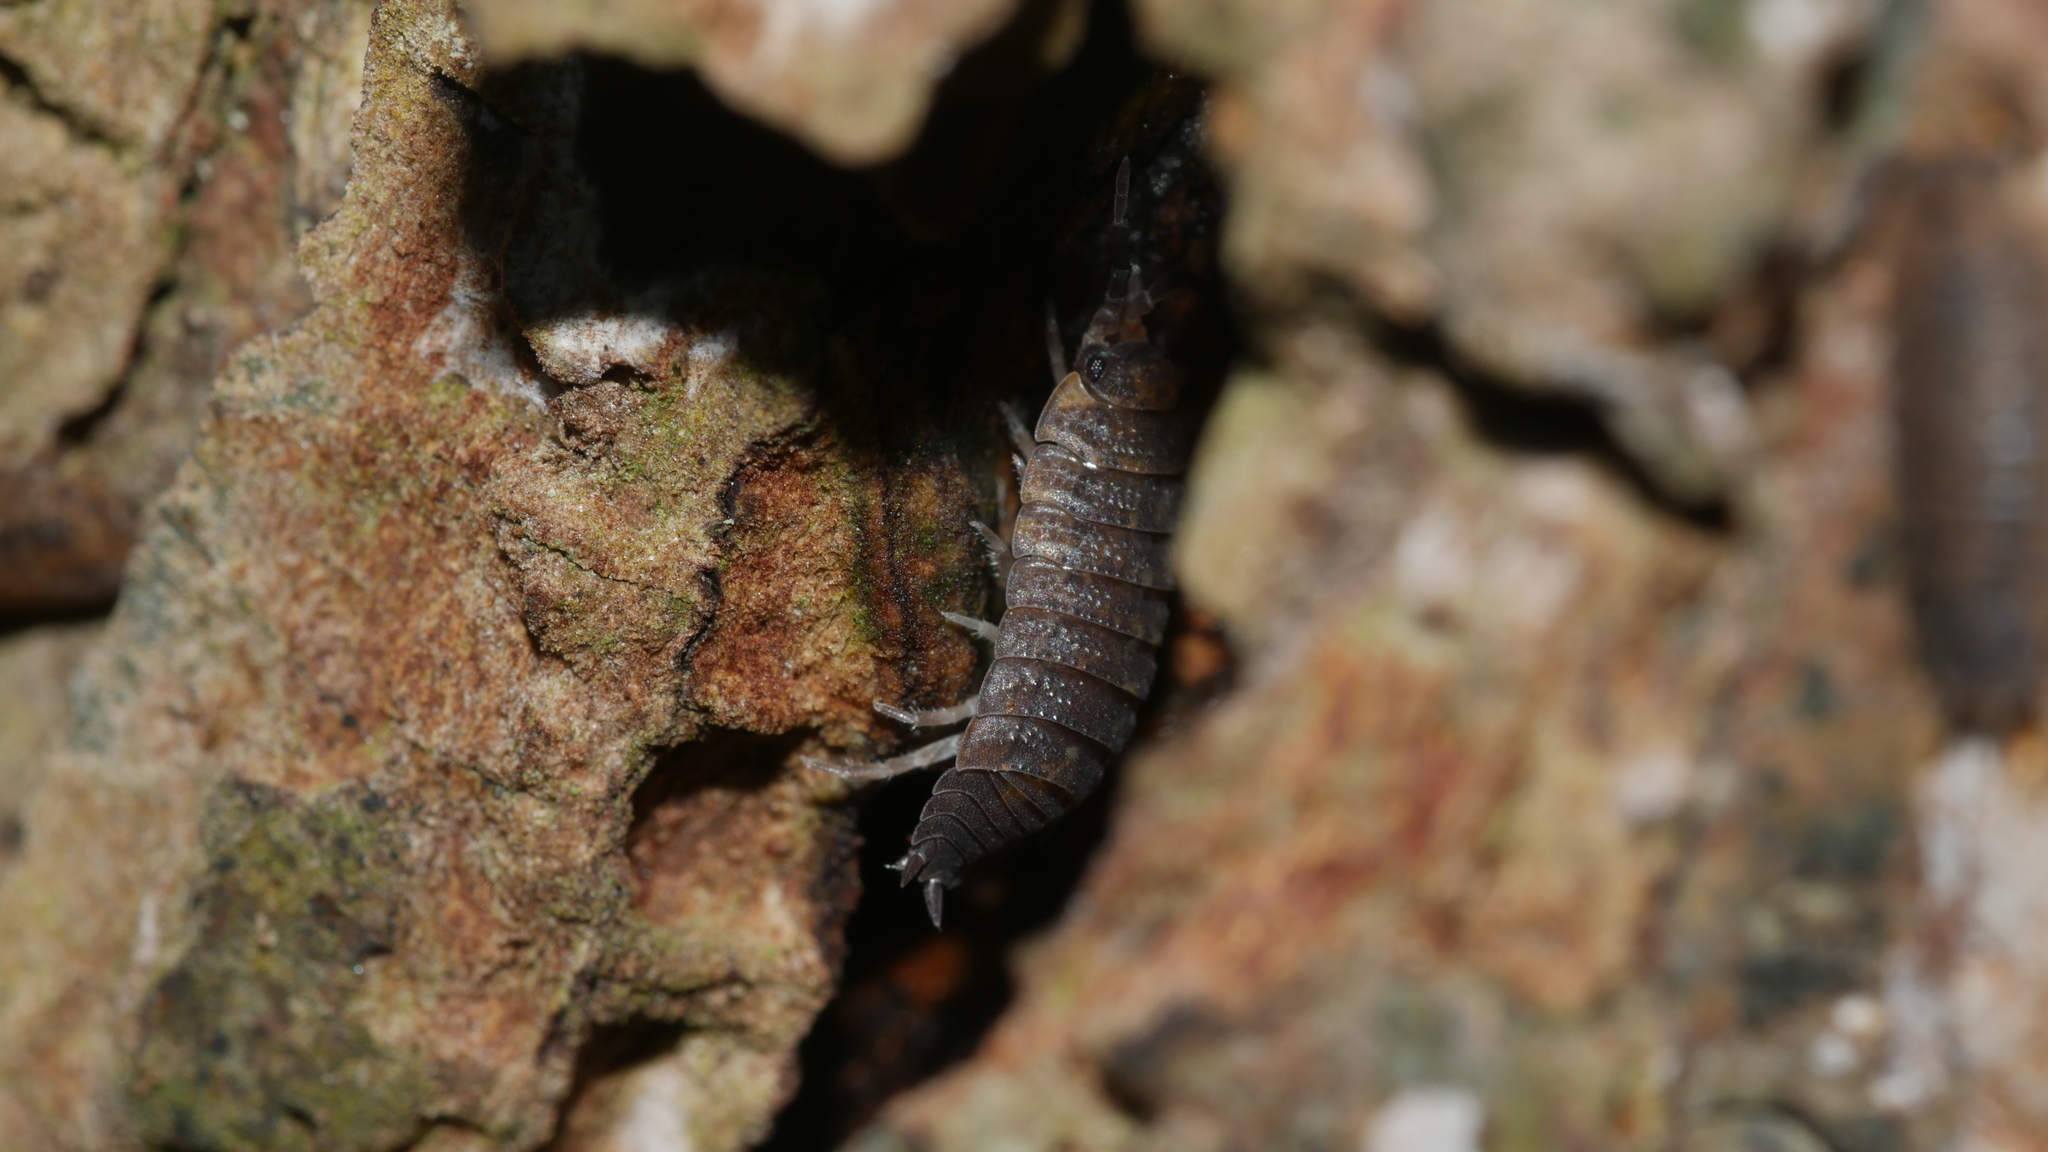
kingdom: Animalia
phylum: Arthropoda
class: Malacostraca
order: Isopoda
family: Porcellionidae
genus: Porcellio
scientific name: Porcellio scaber
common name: Common rough woodlouse
